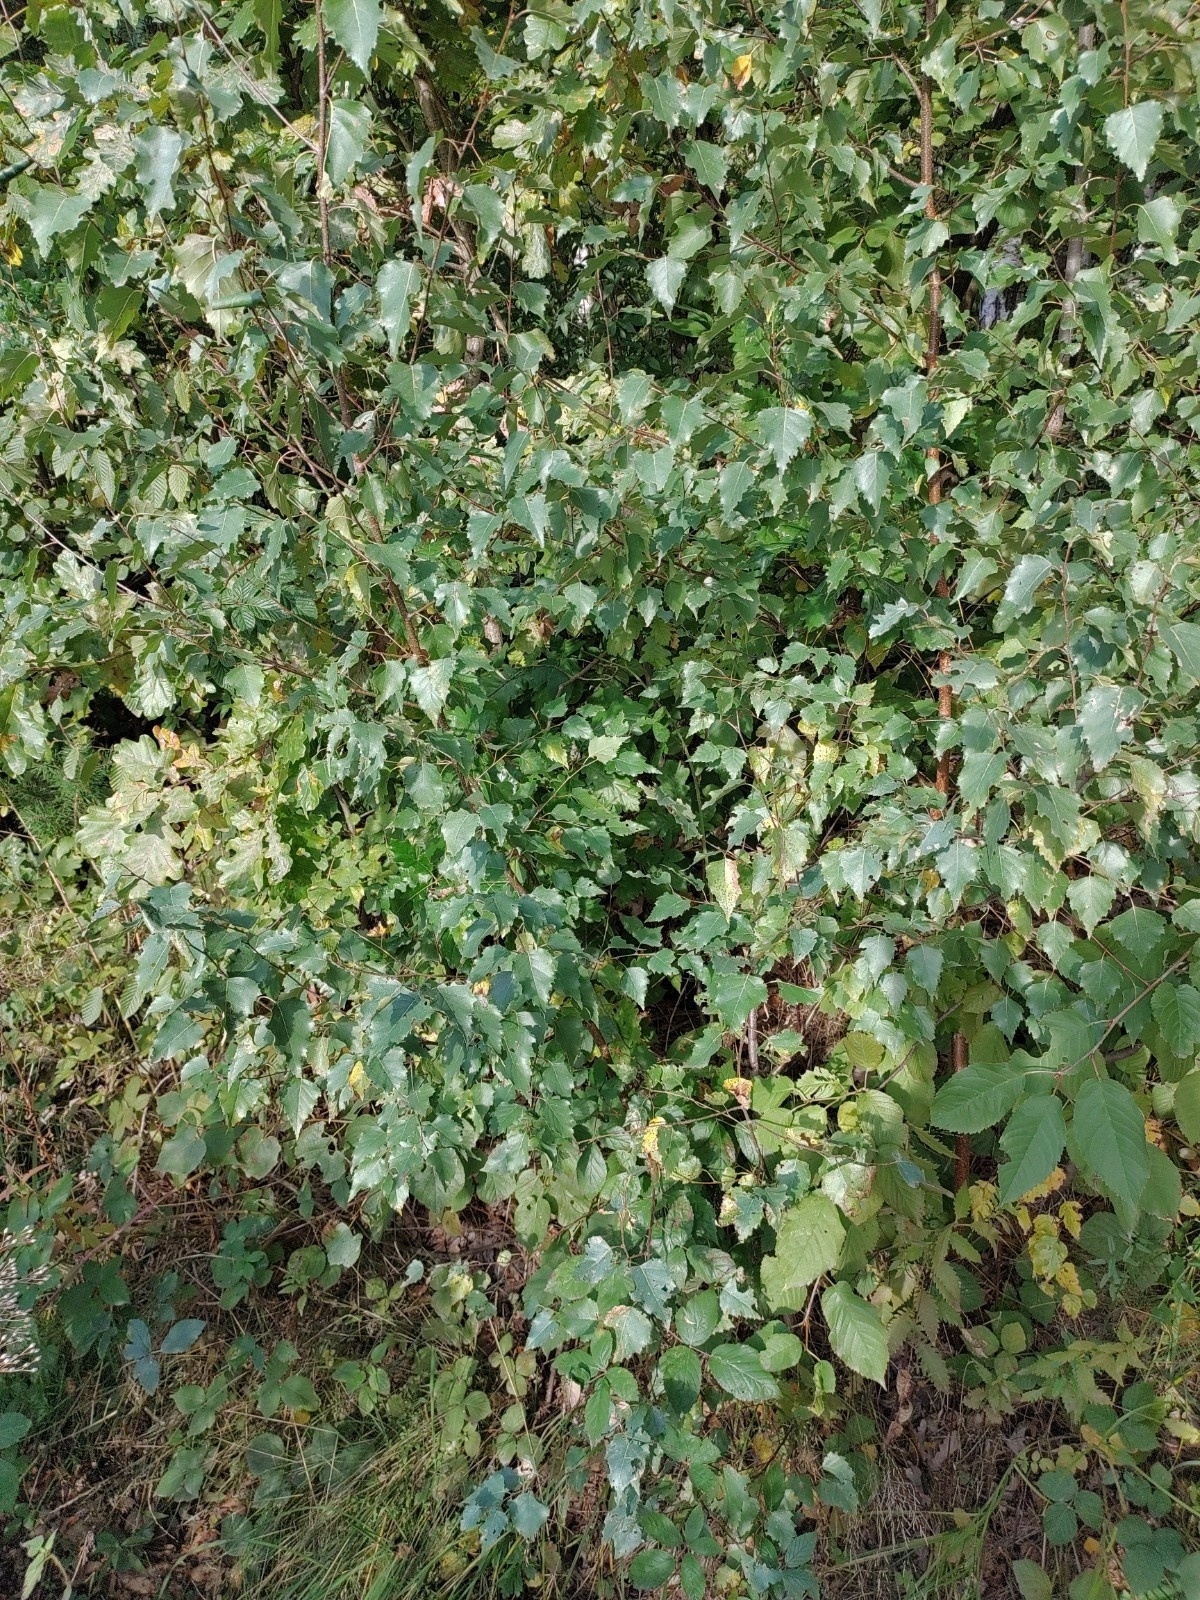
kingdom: Plantae
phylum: Tracheophyta
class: Magnoliopsida
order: Fagales
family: Betulaceae
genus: Betula
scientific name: Betula pendula
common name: Silver birch
